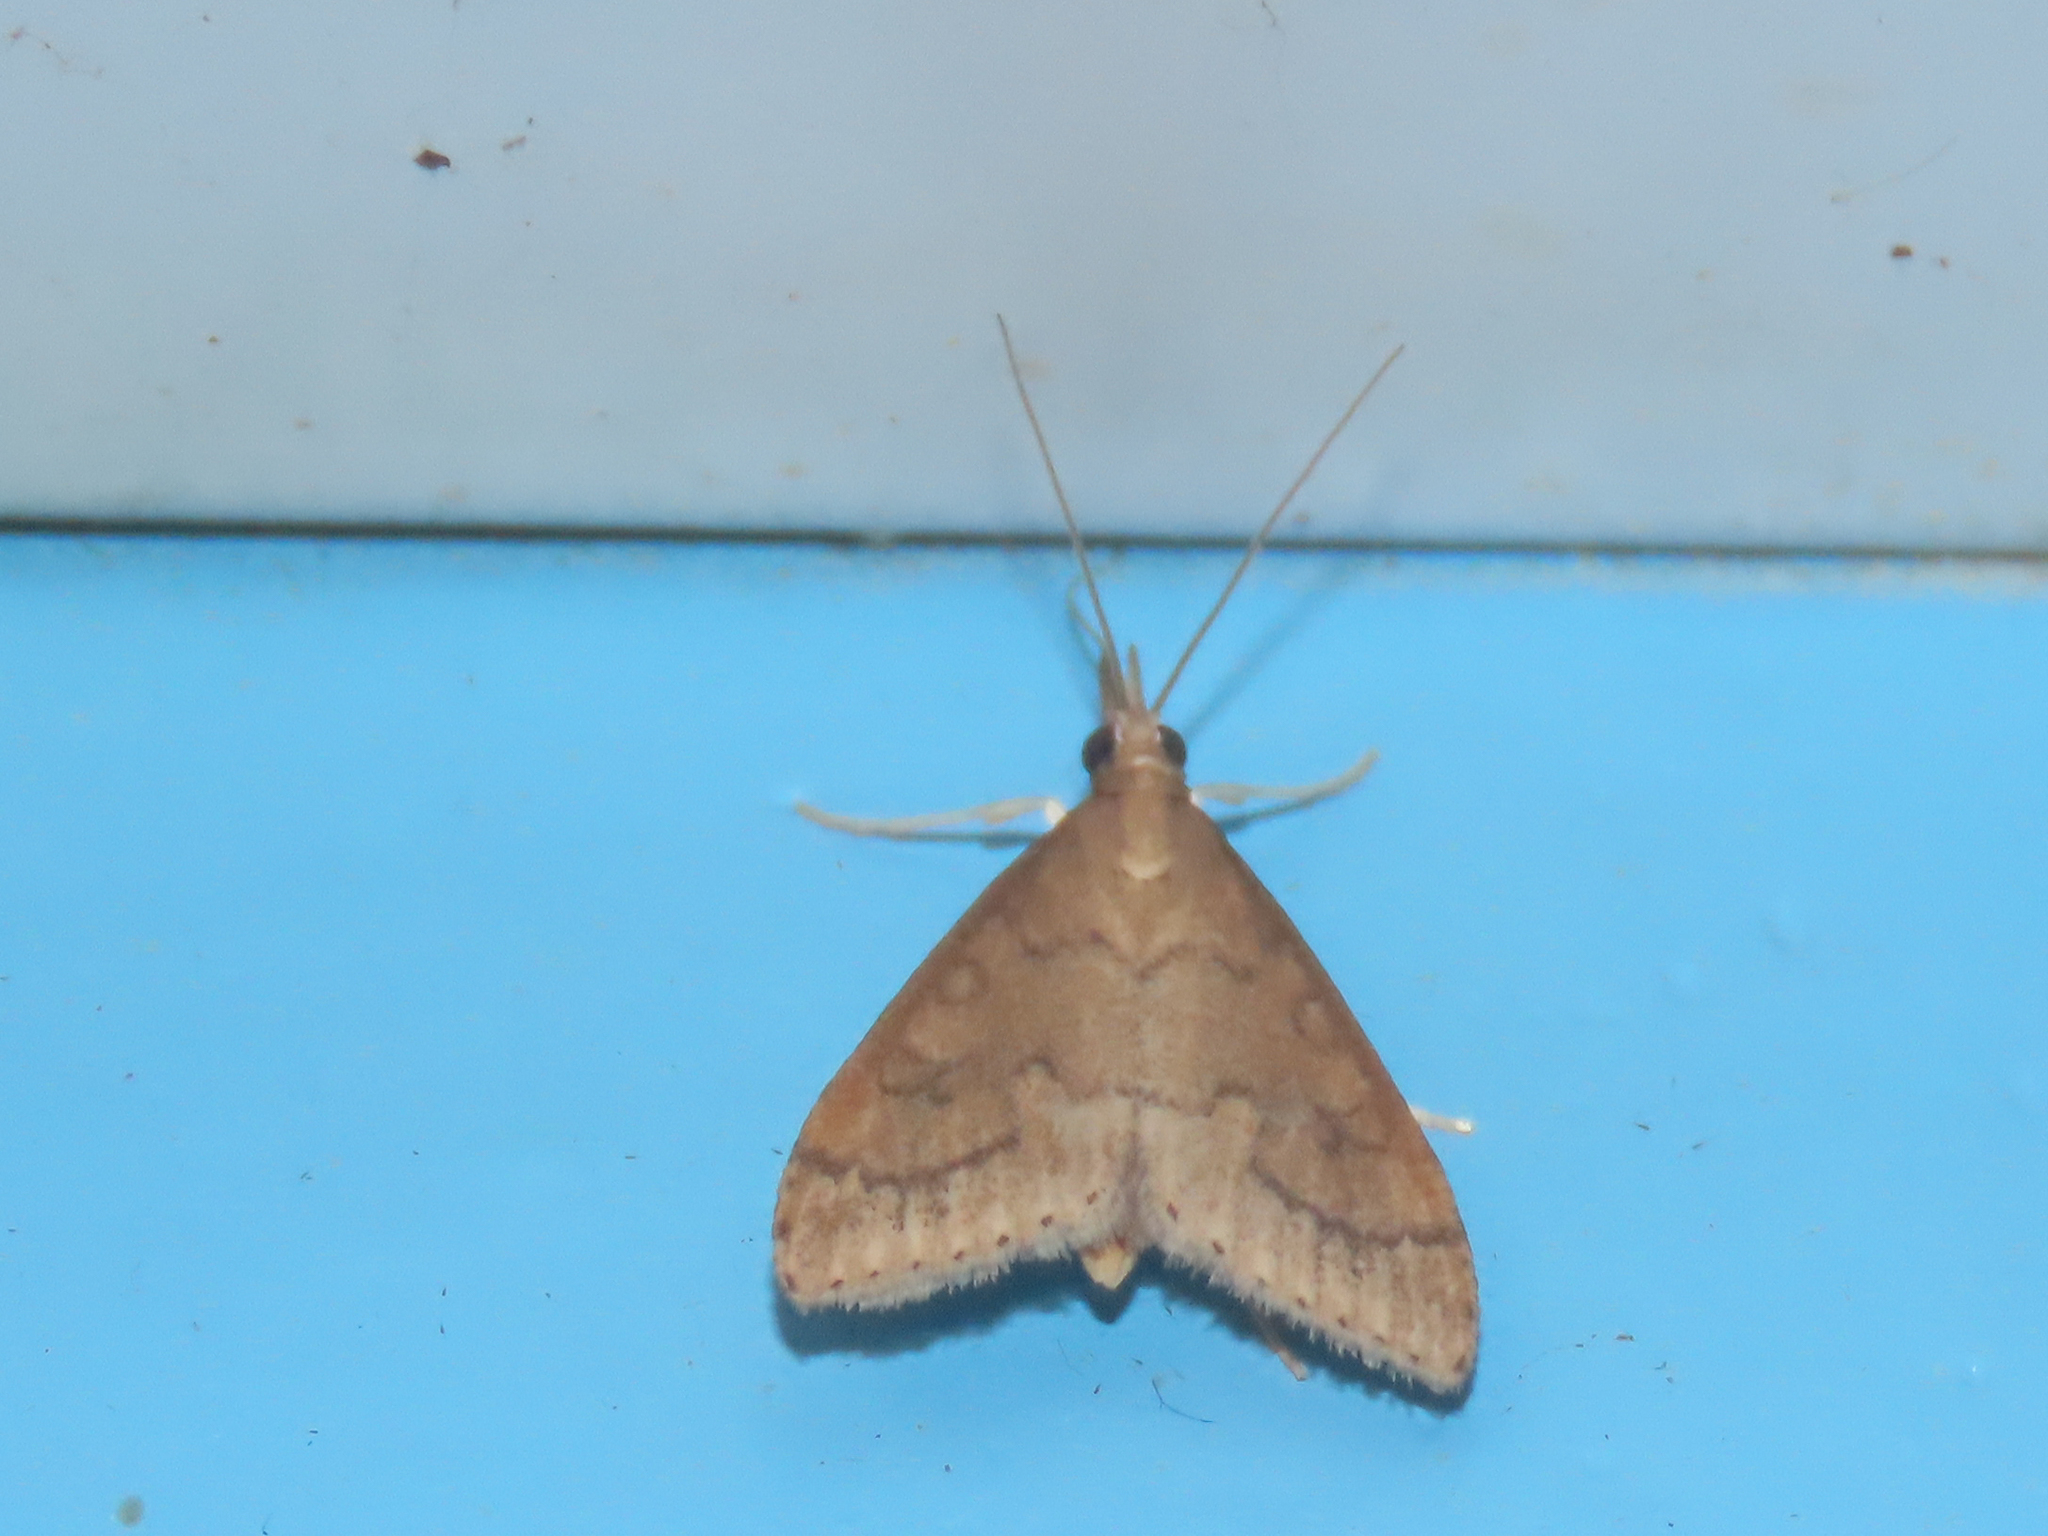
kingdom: Animalia
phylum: Arthropoda
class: Insecta
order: Lepidoptera
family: Crambidae
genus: Udea
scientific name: Udea rubigalis
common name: Celery leaftier moth
